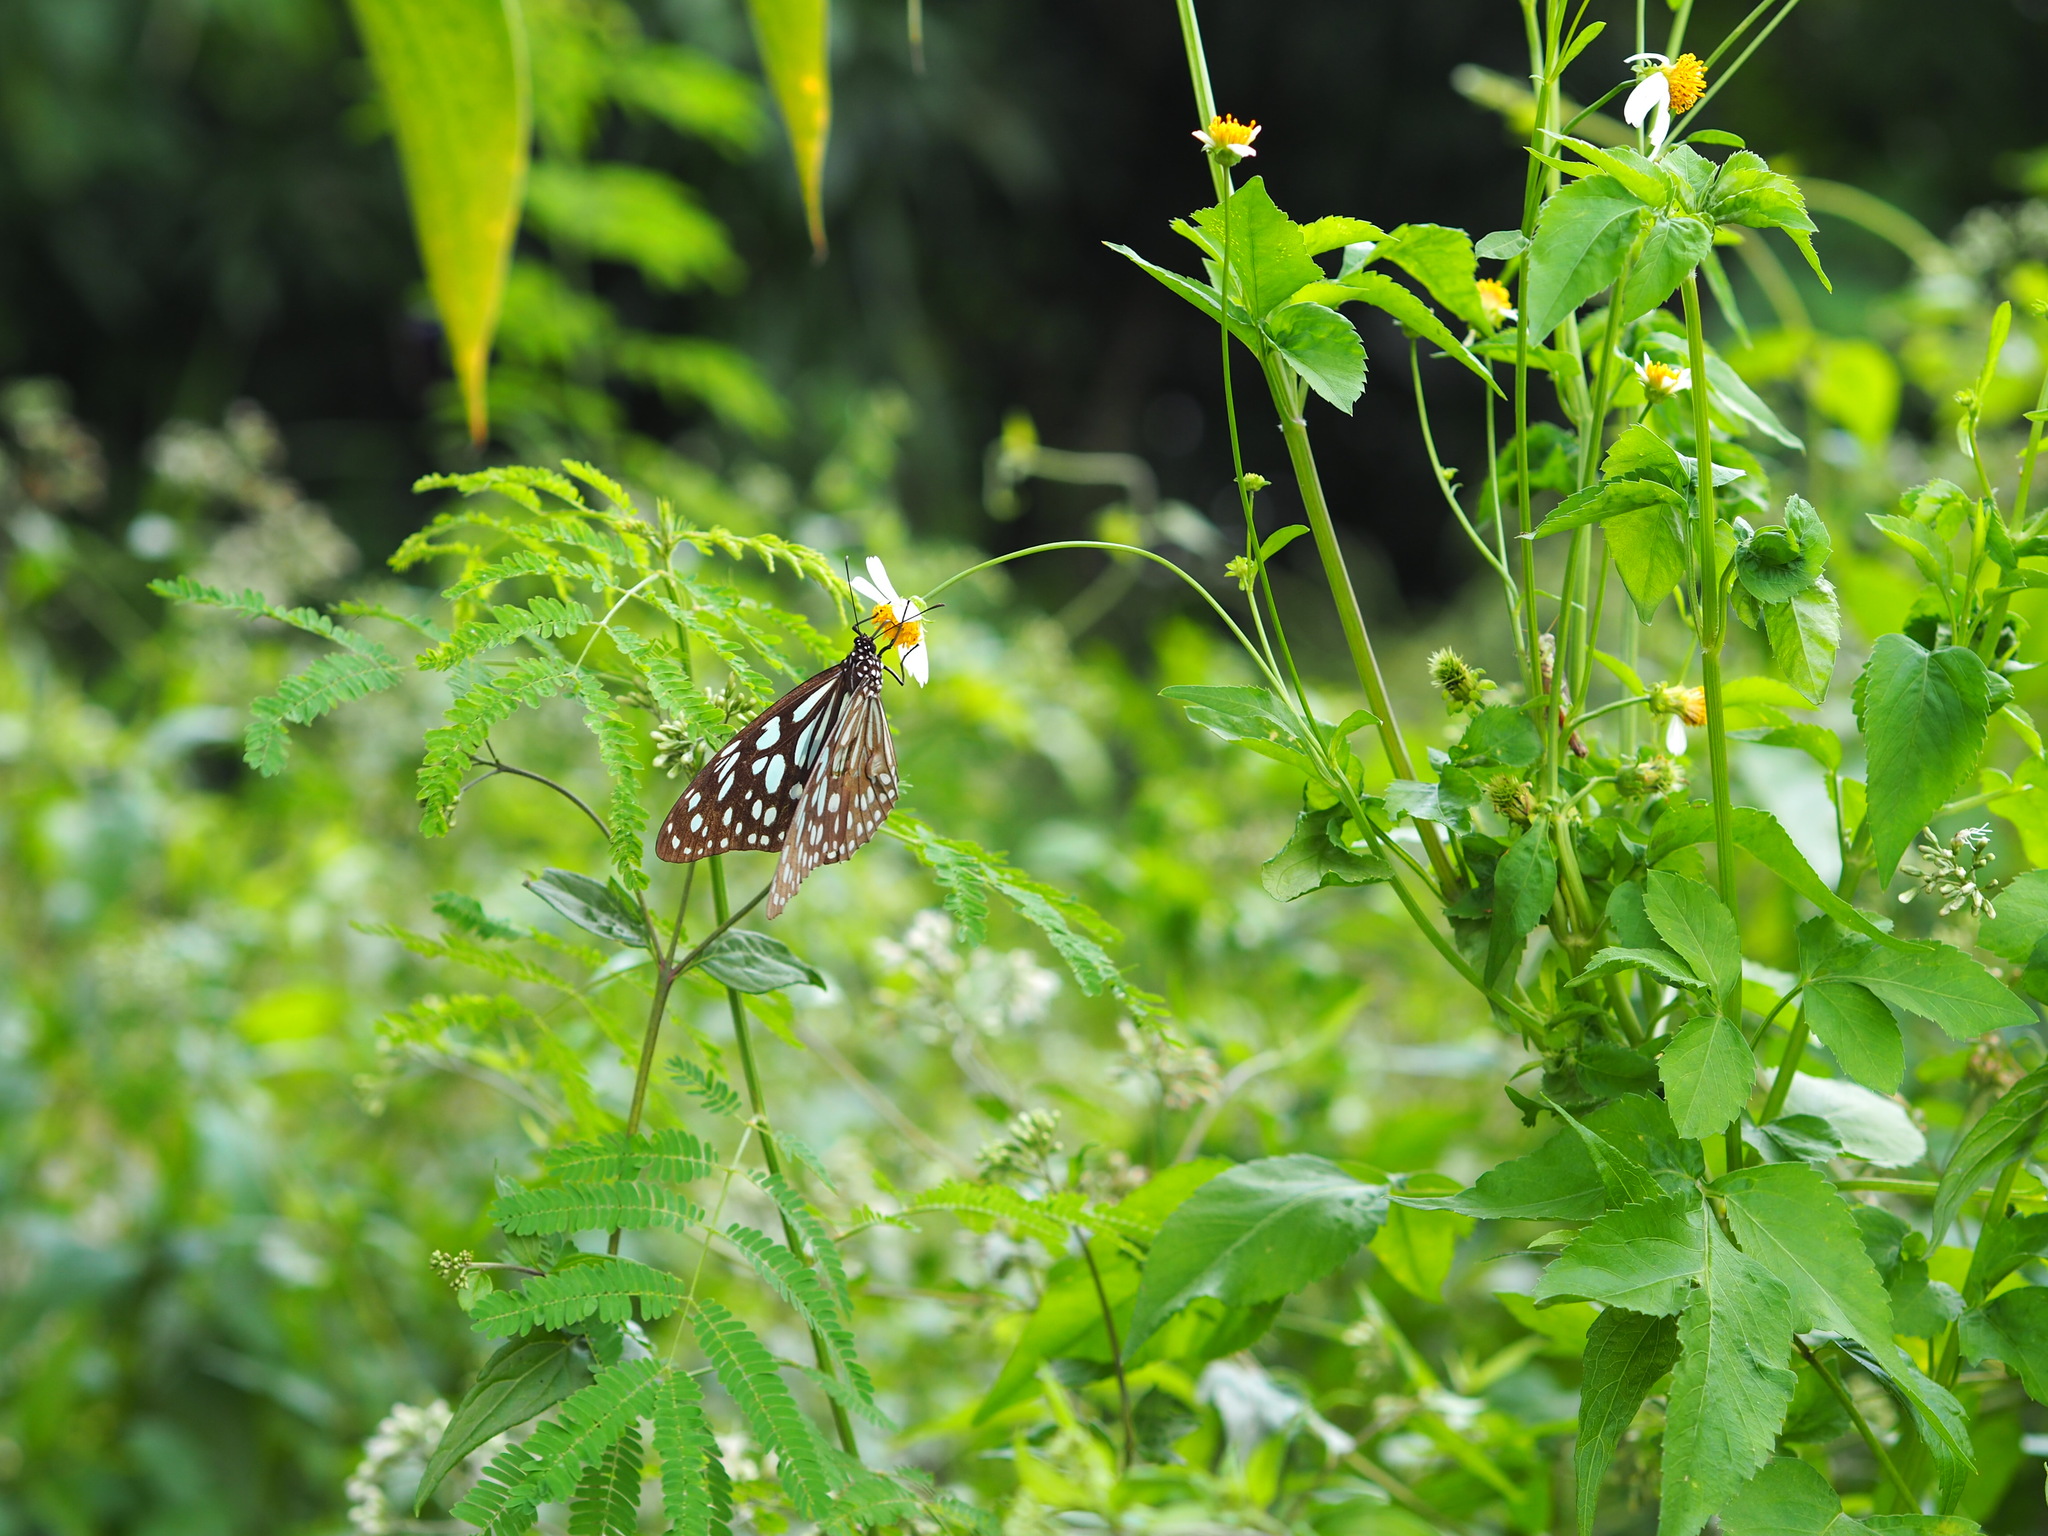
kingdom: Animalia
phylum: Arthropoda
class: Insecta
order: Lepidoptera
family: Nymphalidae
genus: Tirumala
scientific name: Tirumala limniace
